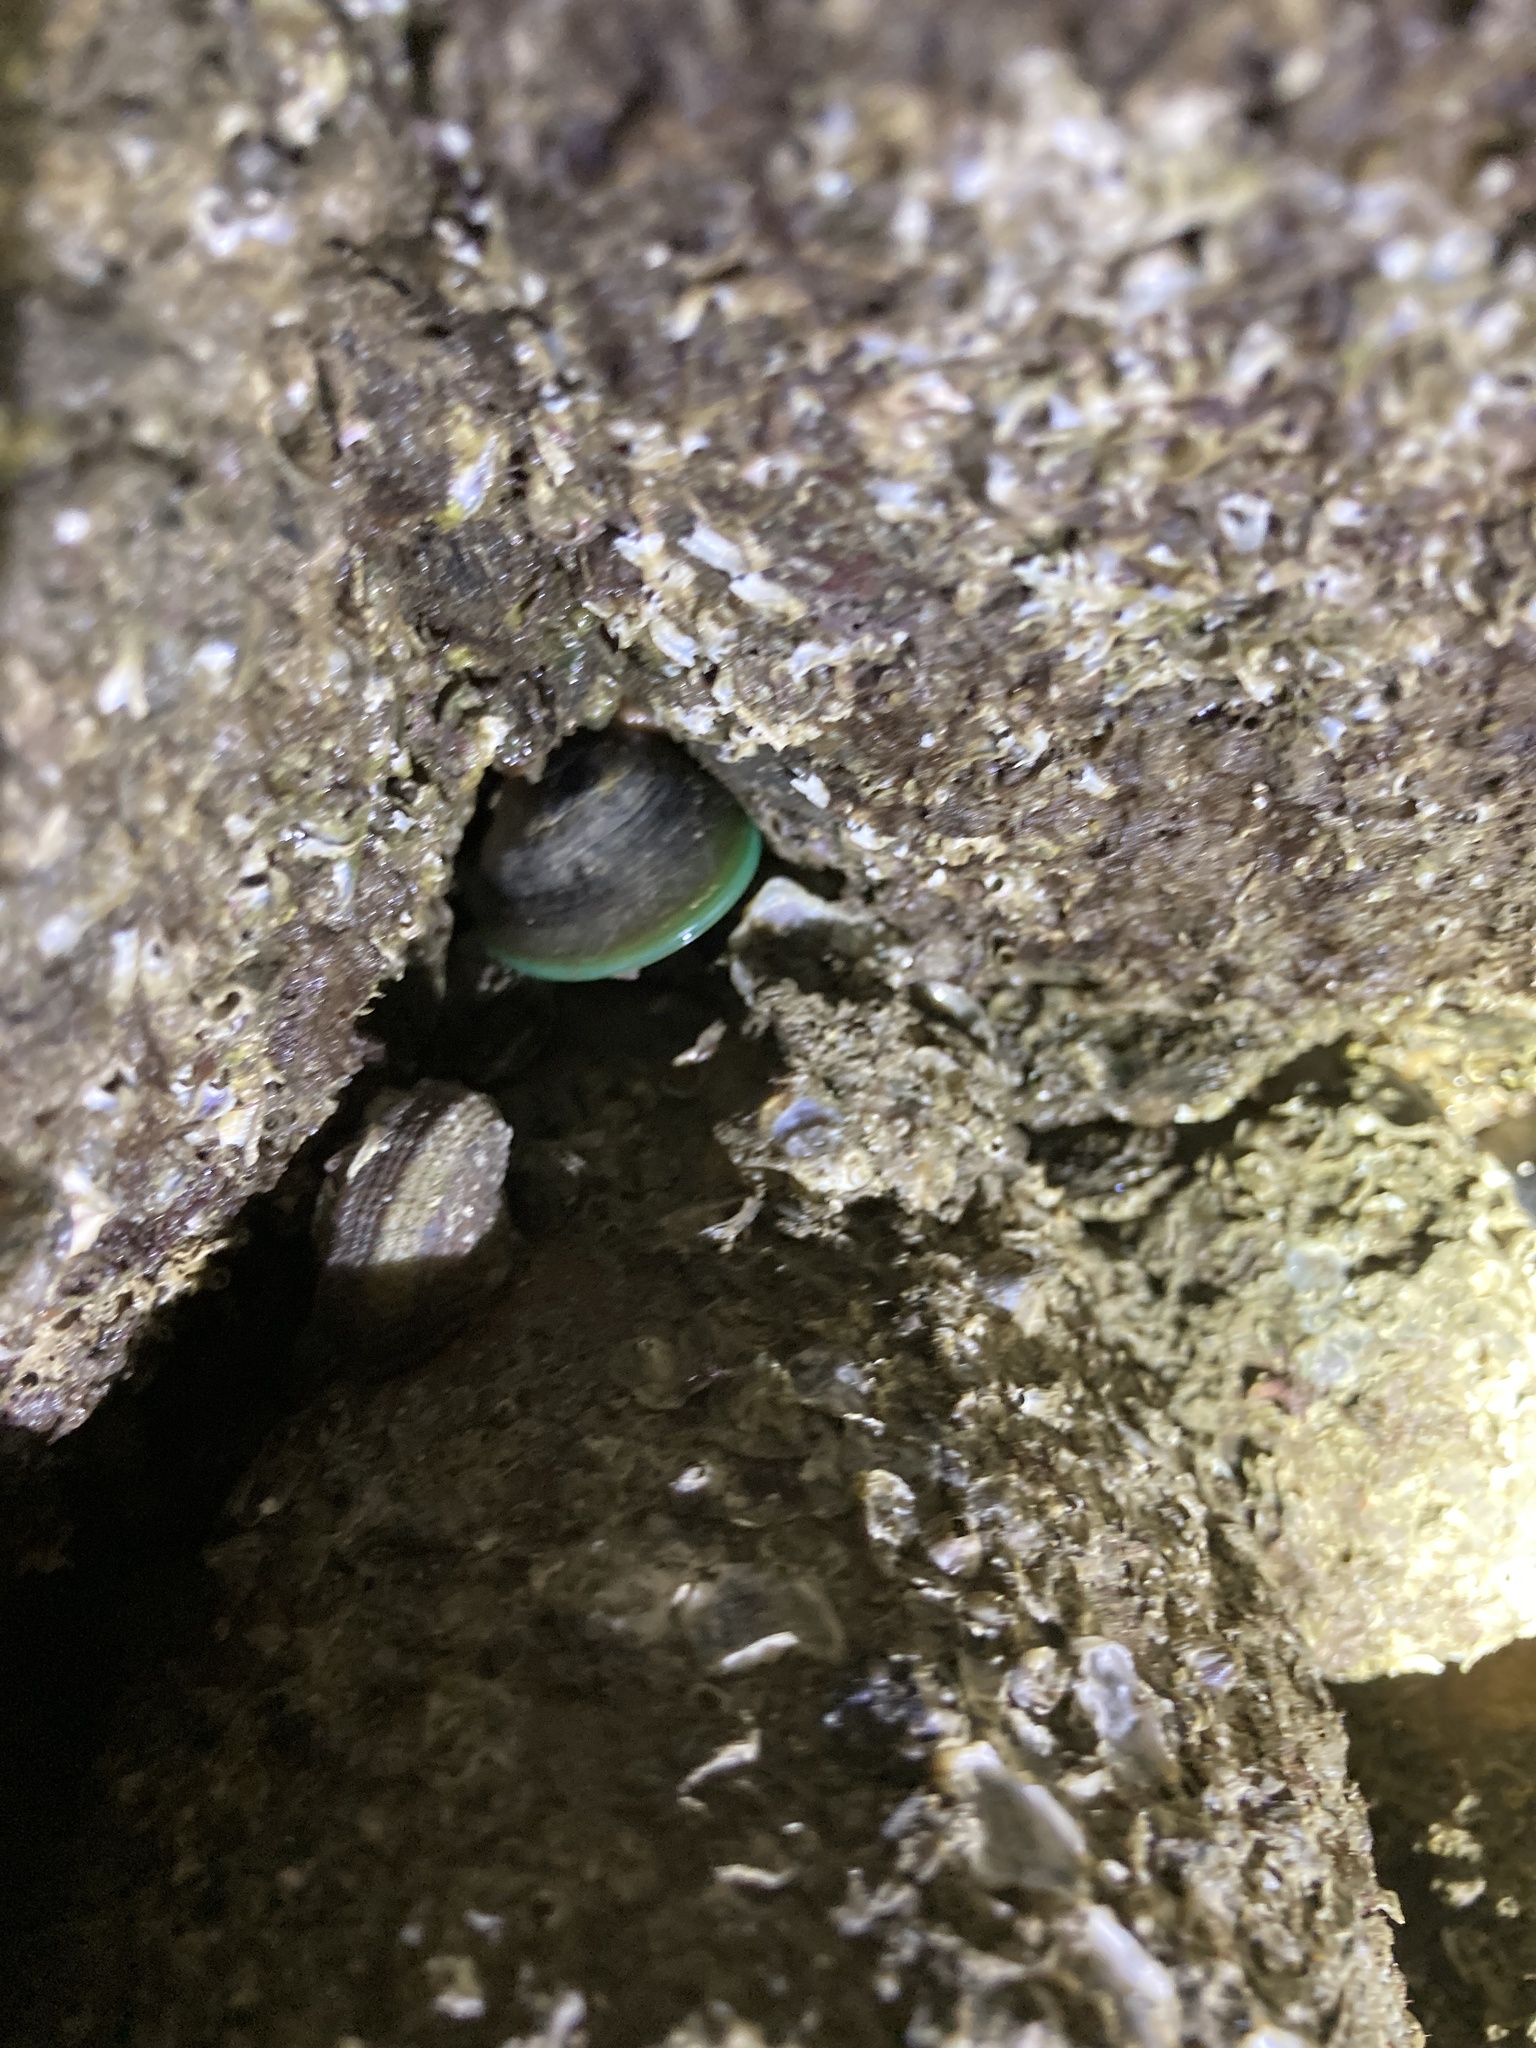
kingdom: Animalia
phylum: Mollusca
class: Bivalvia
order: Mytilida
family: Mytilidae
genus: Perna
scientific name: Perna viridis
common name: Green mussel
